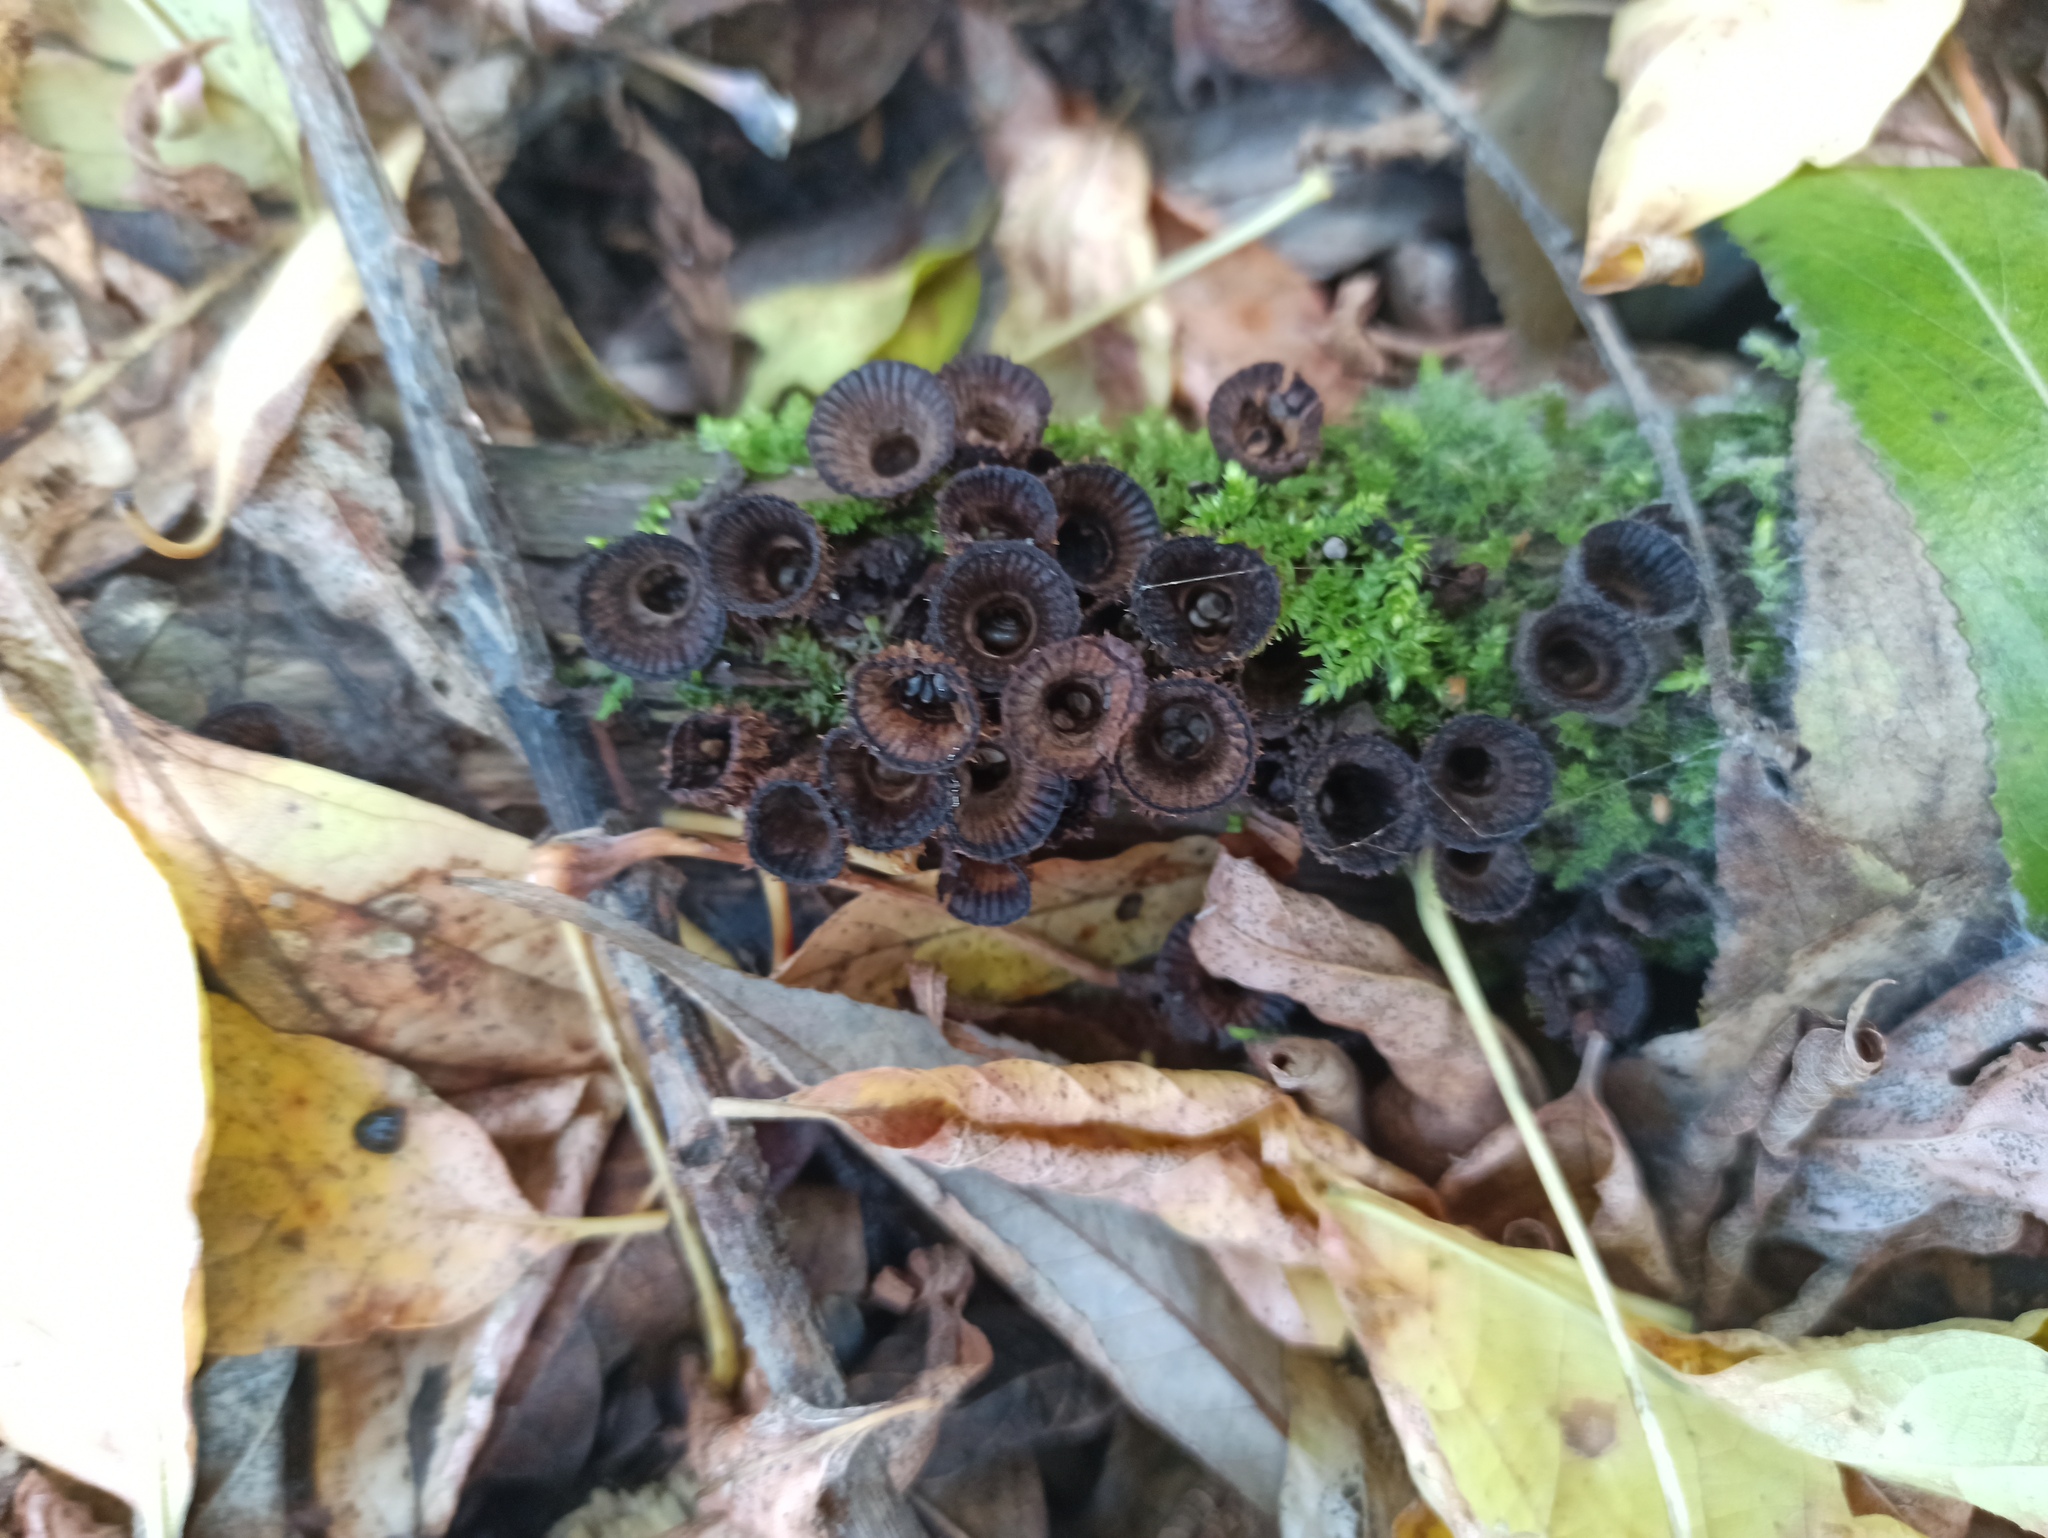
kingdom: Fungi
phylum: Basidiomycota
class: Agaricomycetes
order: Agaricales
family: Agaricaceae
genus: Cyathus
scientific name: Cyathus striatus
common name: Fluted bird's nest
